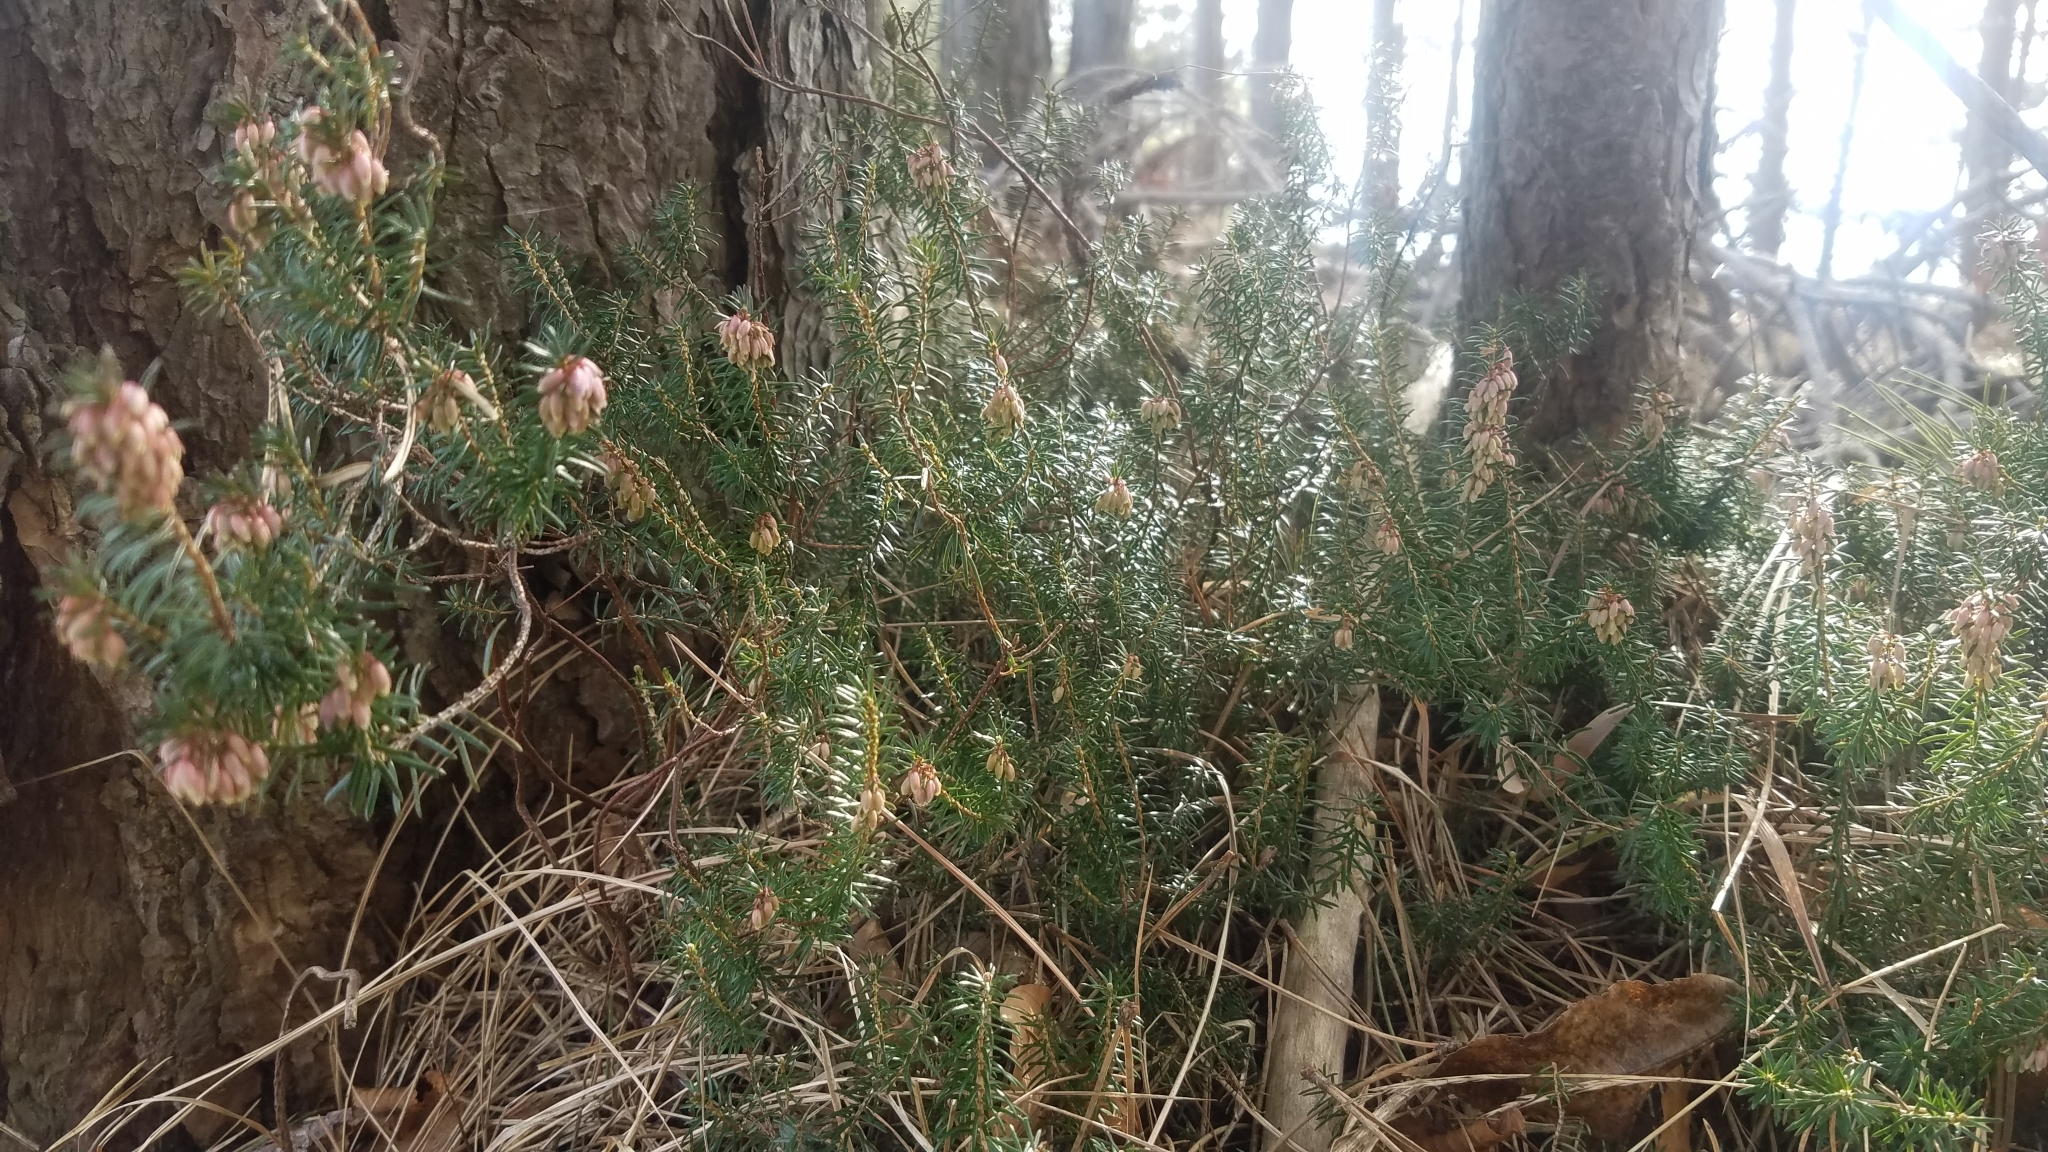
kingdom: Plantae
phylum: Tracheophyta
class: Magnoliopsida
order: Ericales
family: Ericaceae
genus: Erica
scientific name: Erica carnea
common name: Winter heath
